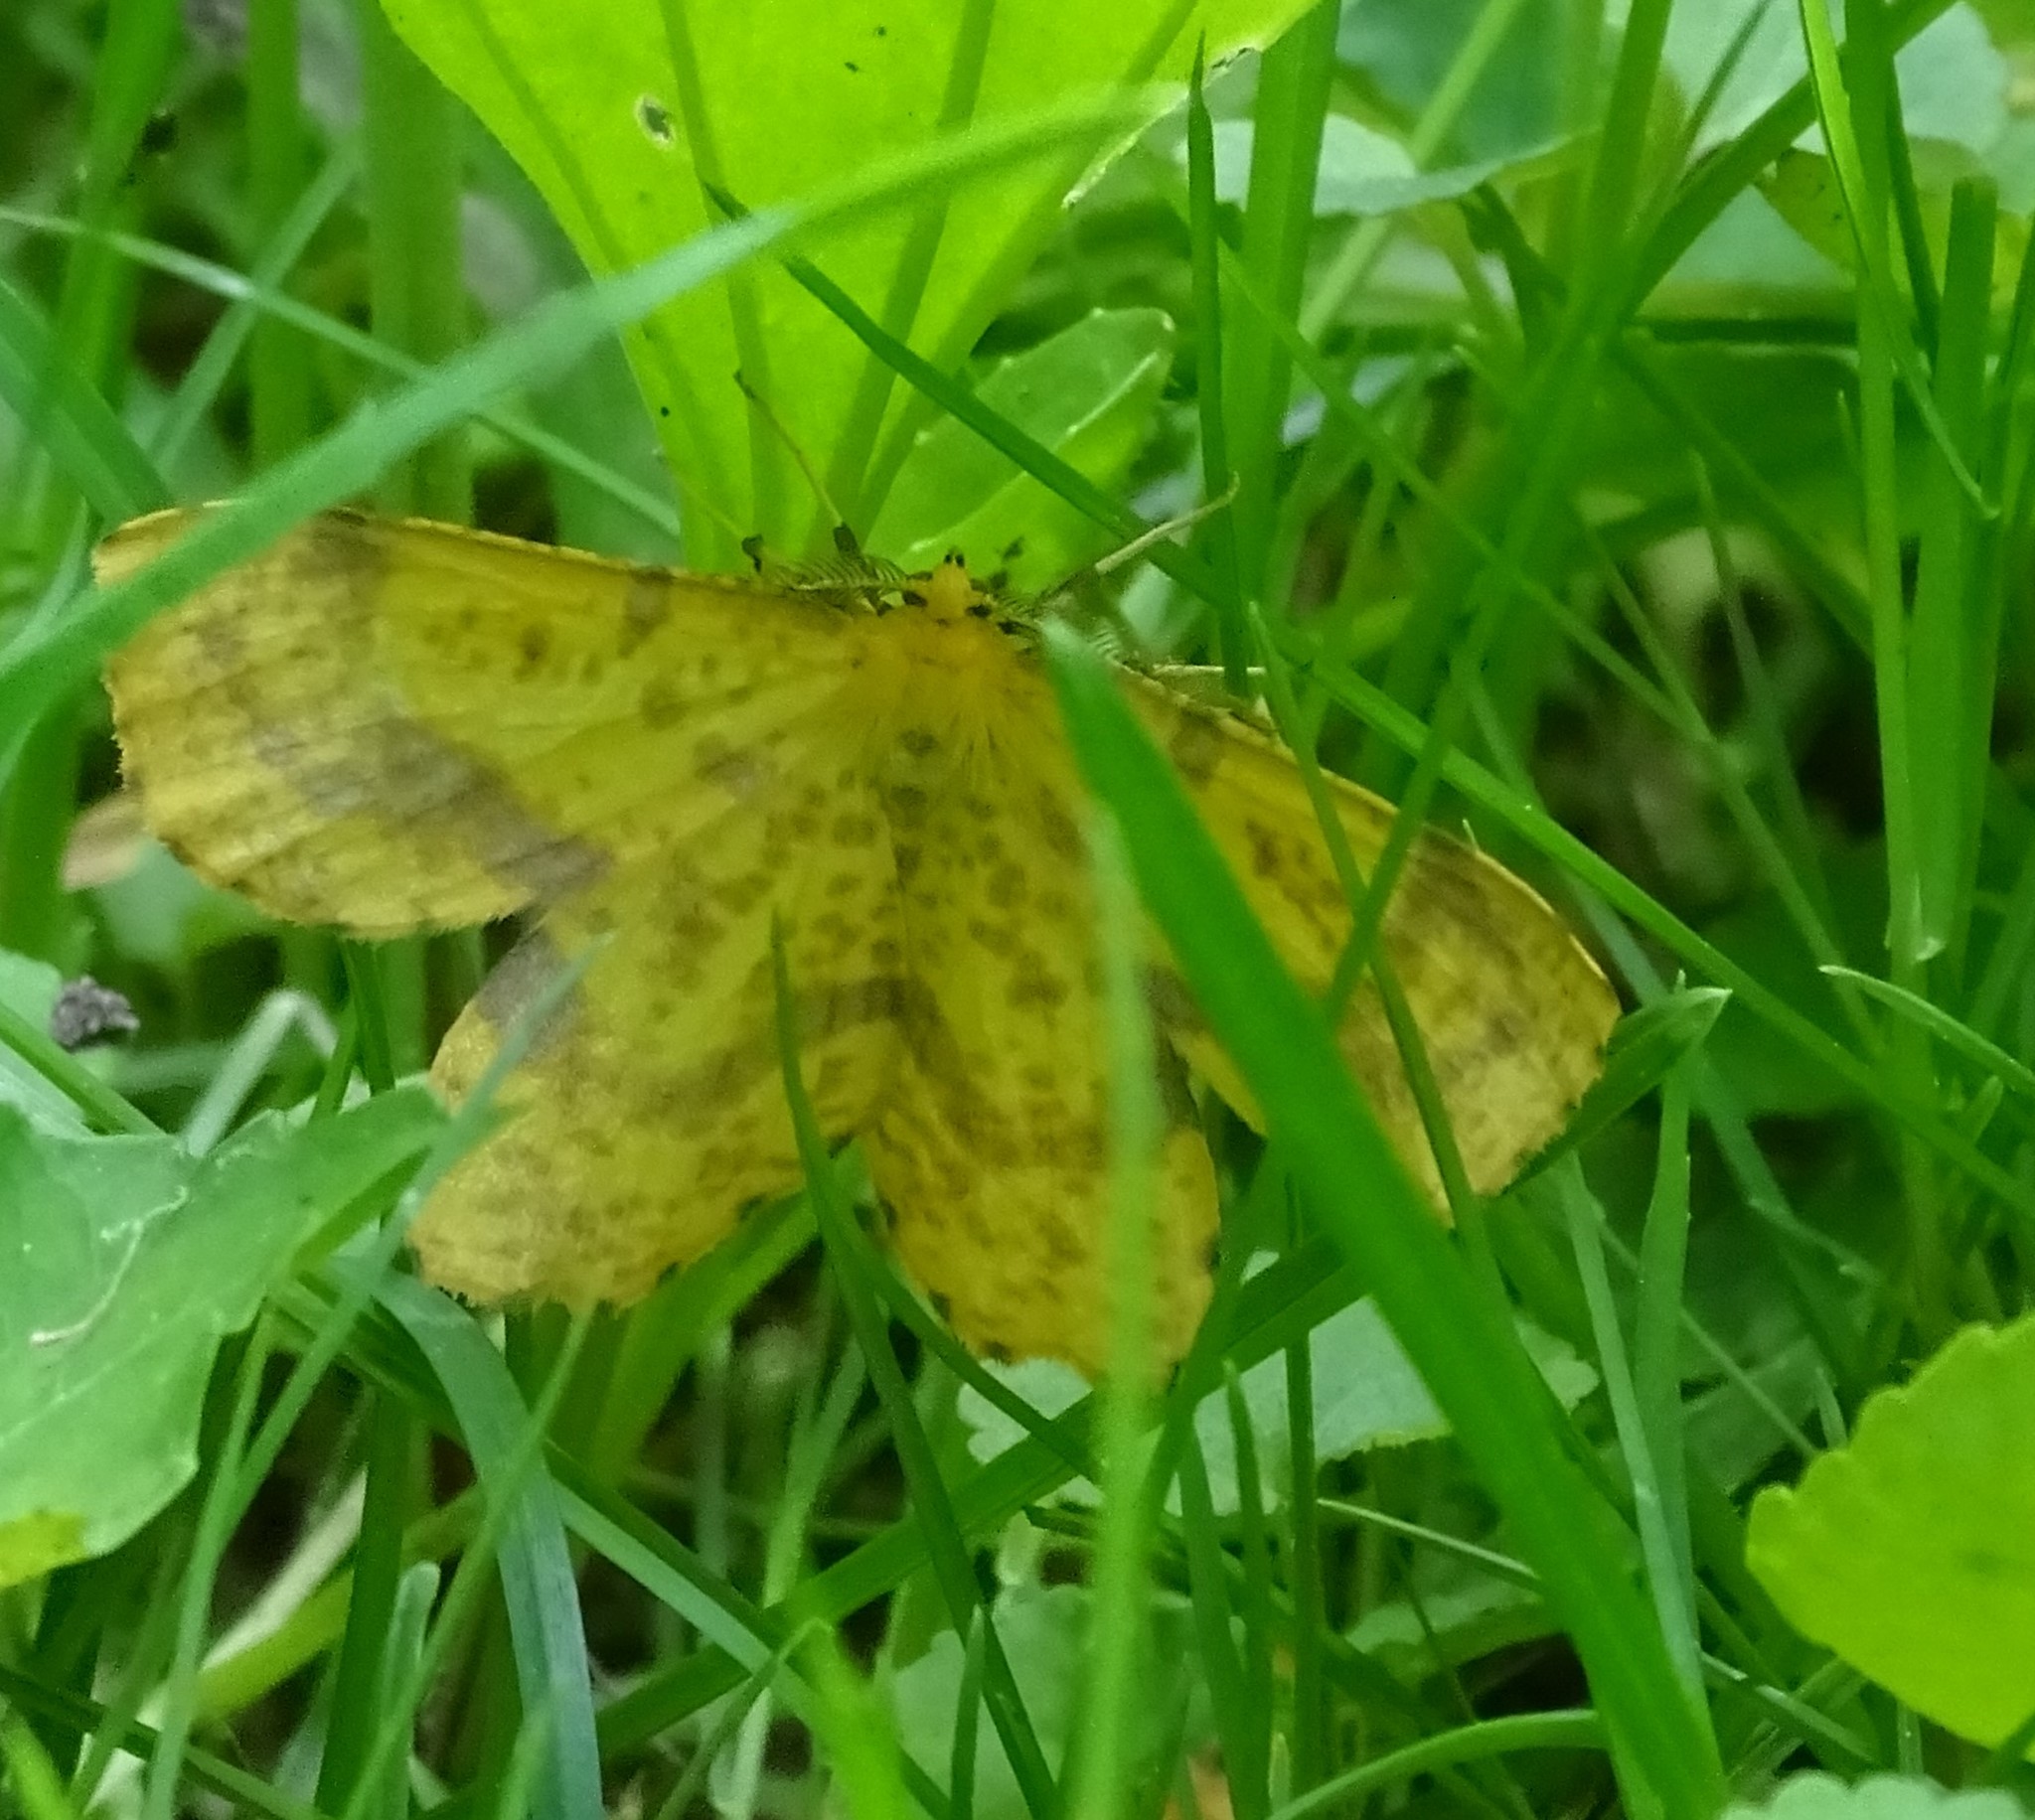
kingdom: Animalia
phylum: Arthropoda
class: Insecta
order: Lepidoptera
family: Geometridae
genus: Xanthotype
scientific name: Xanthotype
